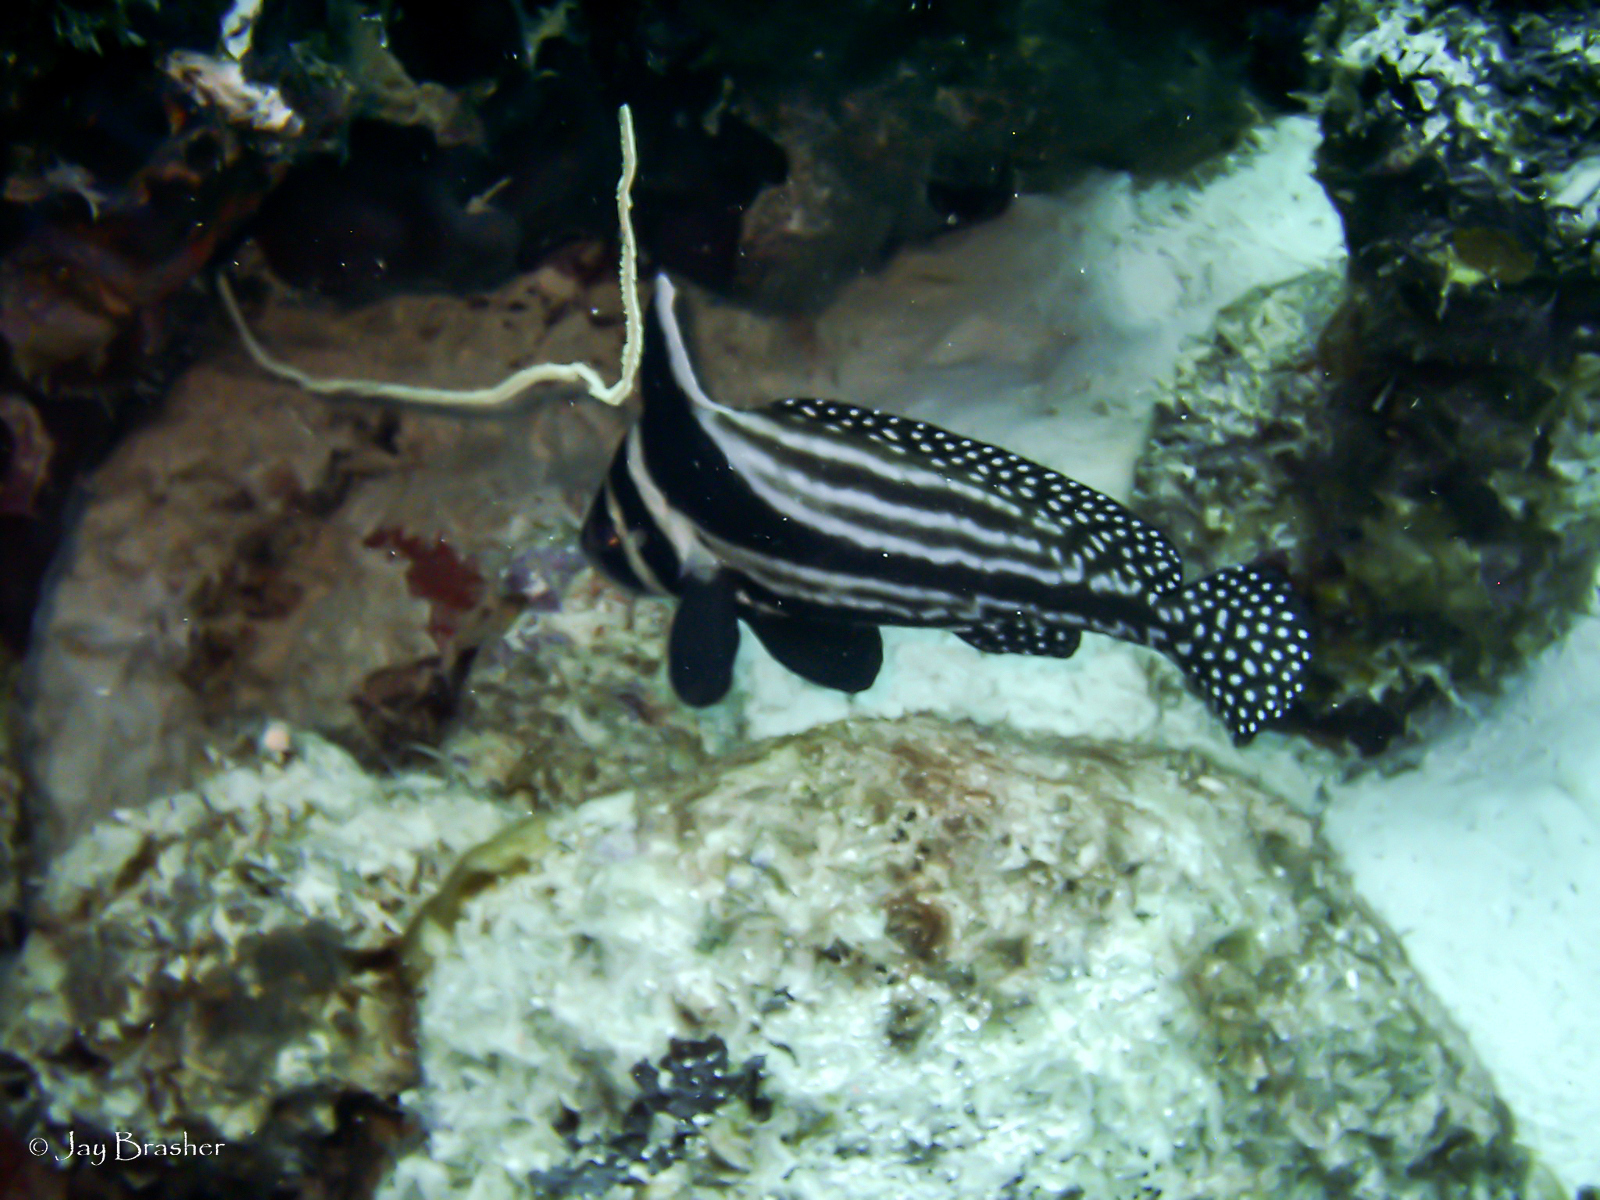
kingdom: Animalia
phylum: Chordata
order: Perciformes
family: Sciaenidae
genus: Equetus
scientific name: Equetus punctatus
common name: Spotted drum
